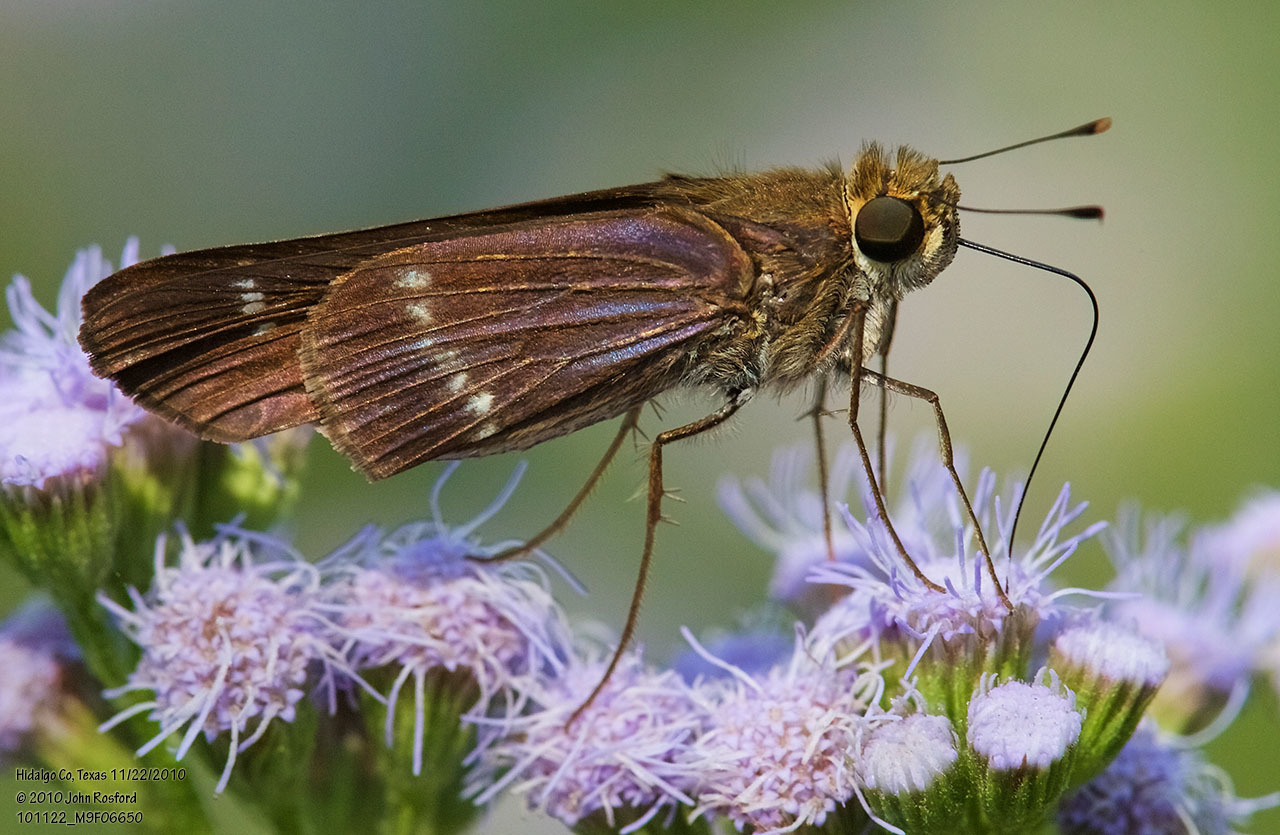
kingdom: Animalia
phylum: Arthropoda
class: Insecta
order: Lepidoptera
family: Hesperiidae
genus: Turesis
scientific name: Turesis lucas
